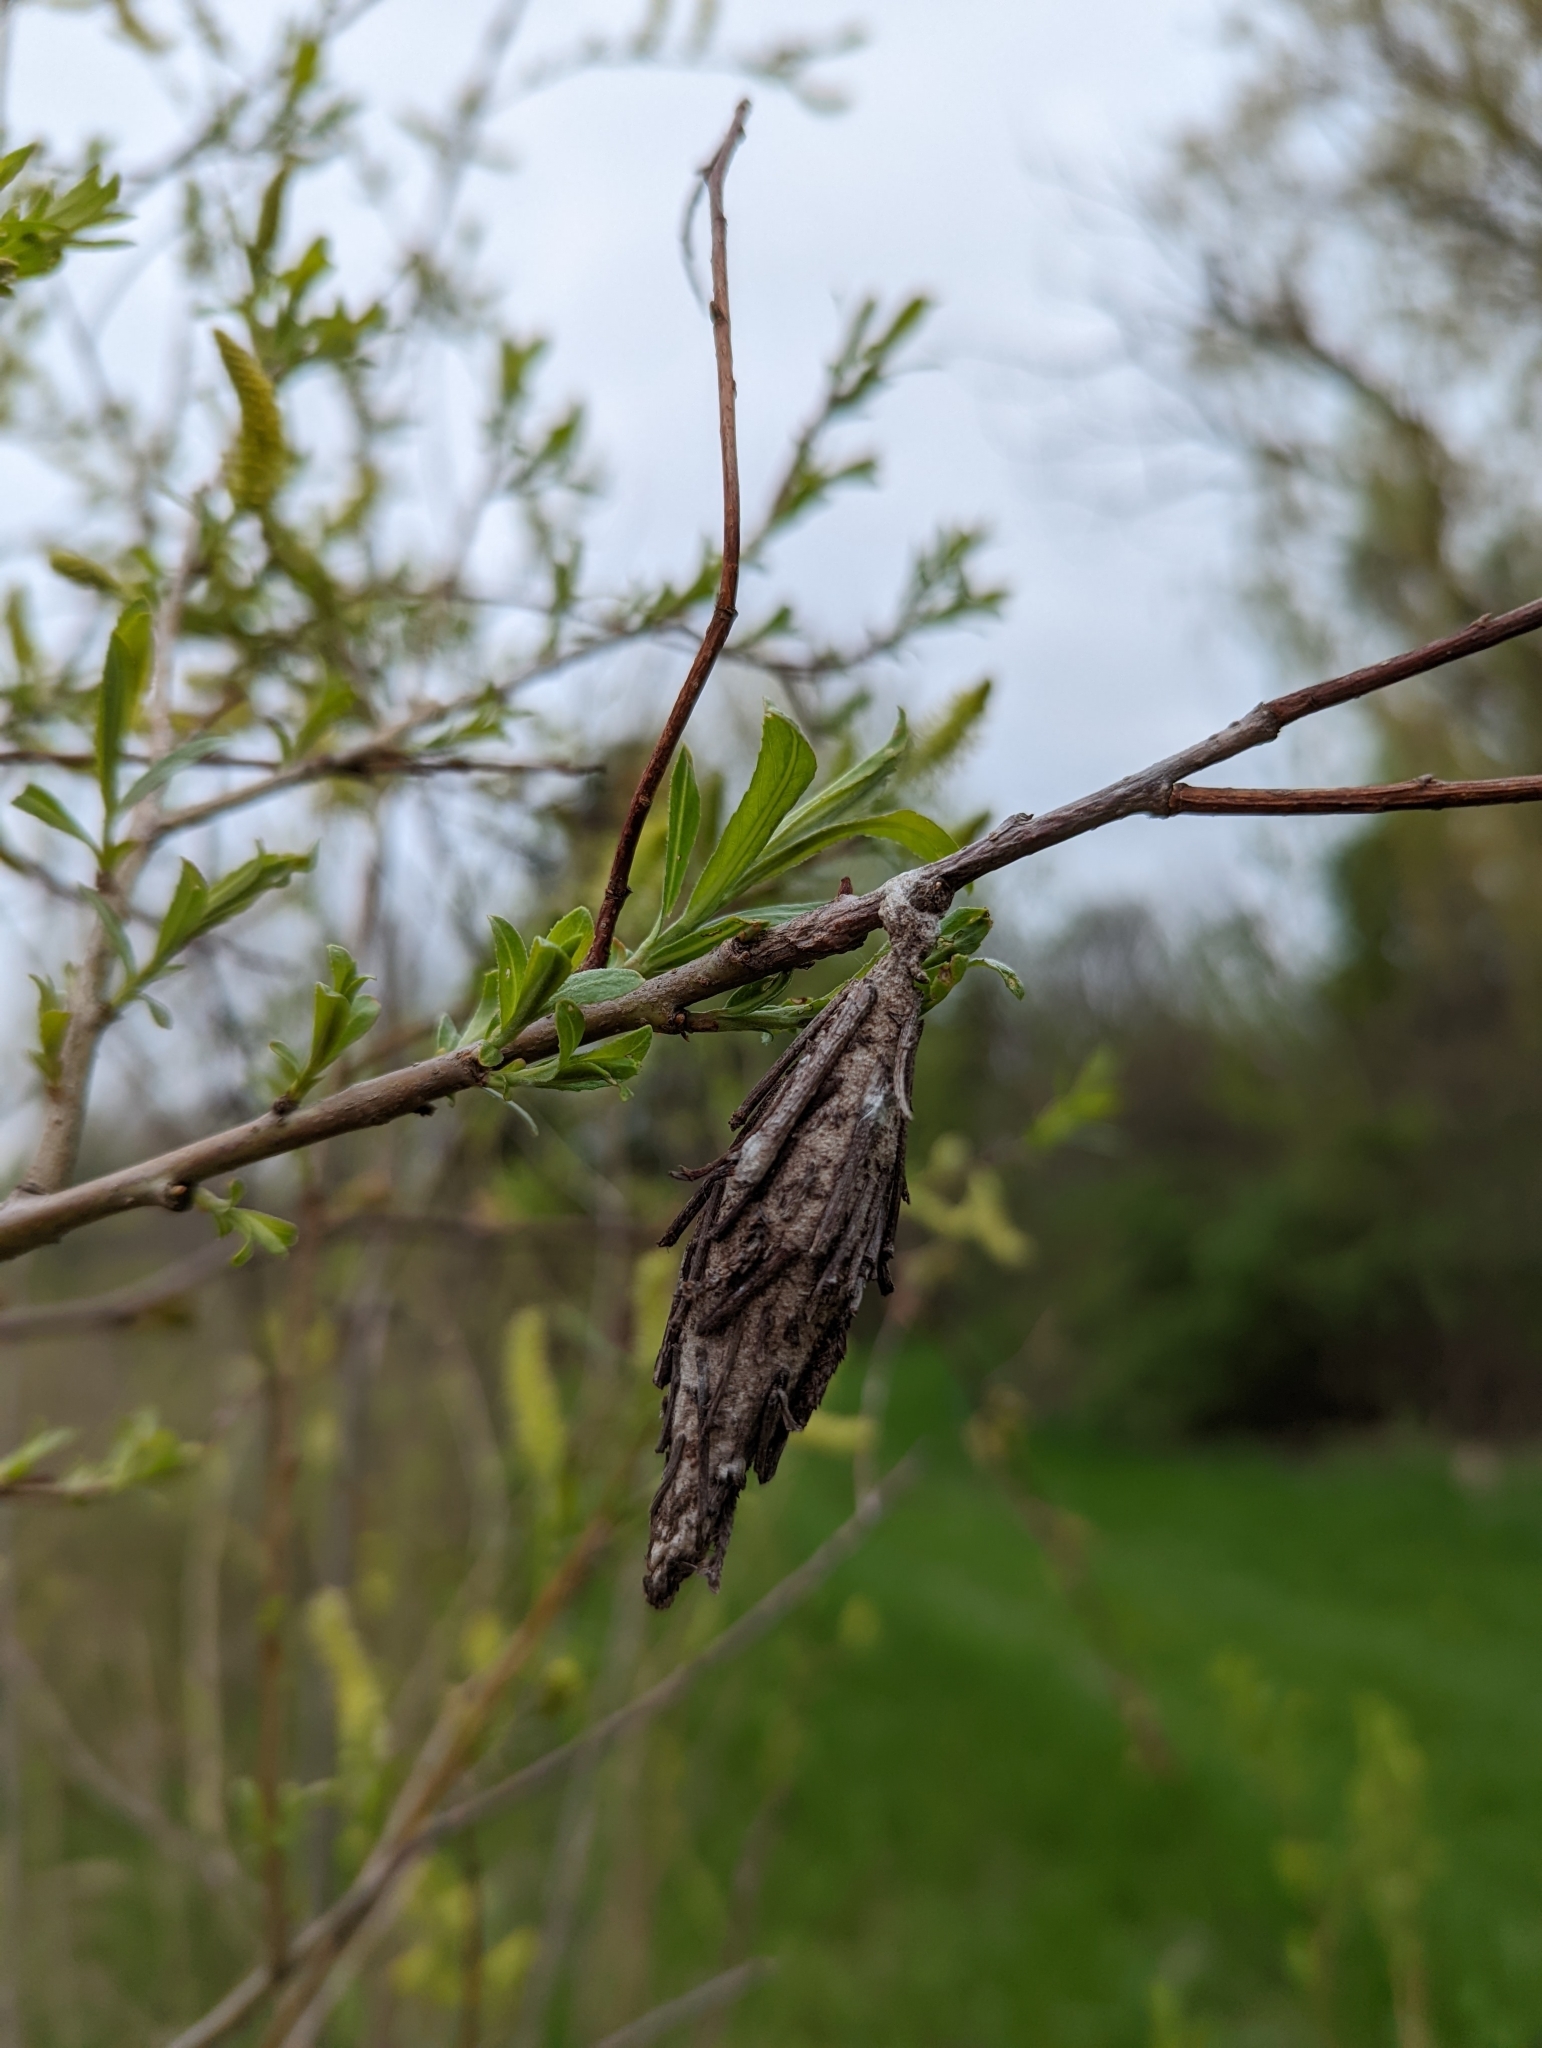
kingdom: Animalia
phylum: Arthropoda
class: Insecta
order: Lepidoptera
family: Psychidae
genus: Thyridopteryx
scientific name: Thyridopteryx ephemeraeformis
